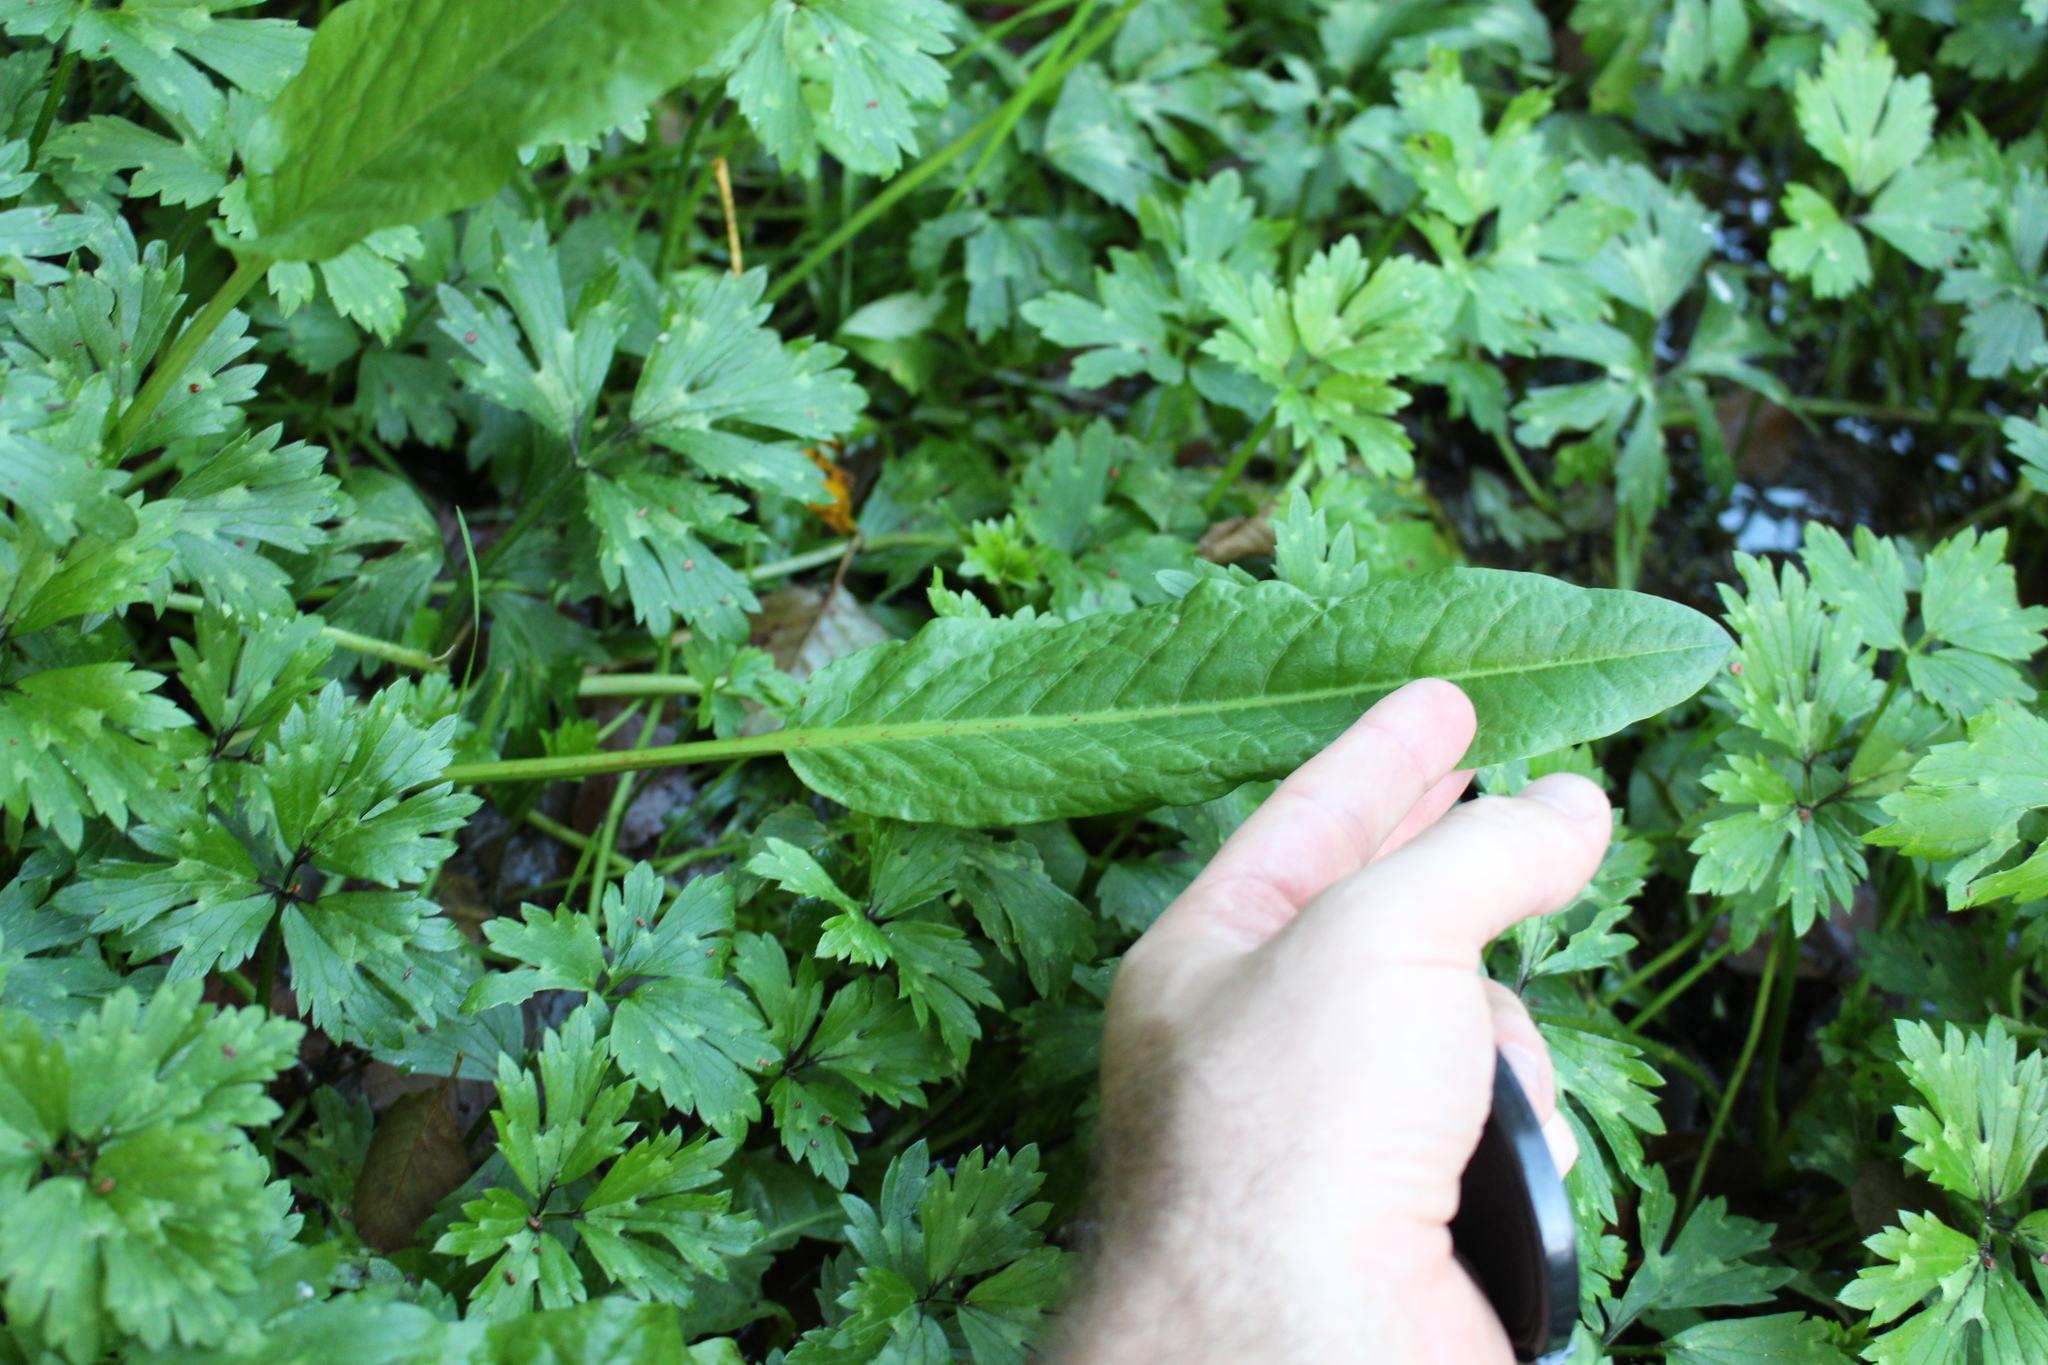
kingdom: Plantae
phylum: Tracheophyta
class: Magnoliopsida
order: Caryophyllales
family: Polygonaceae
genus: Rumex
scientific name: Rumex conglomeratus
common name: Clustered dock
